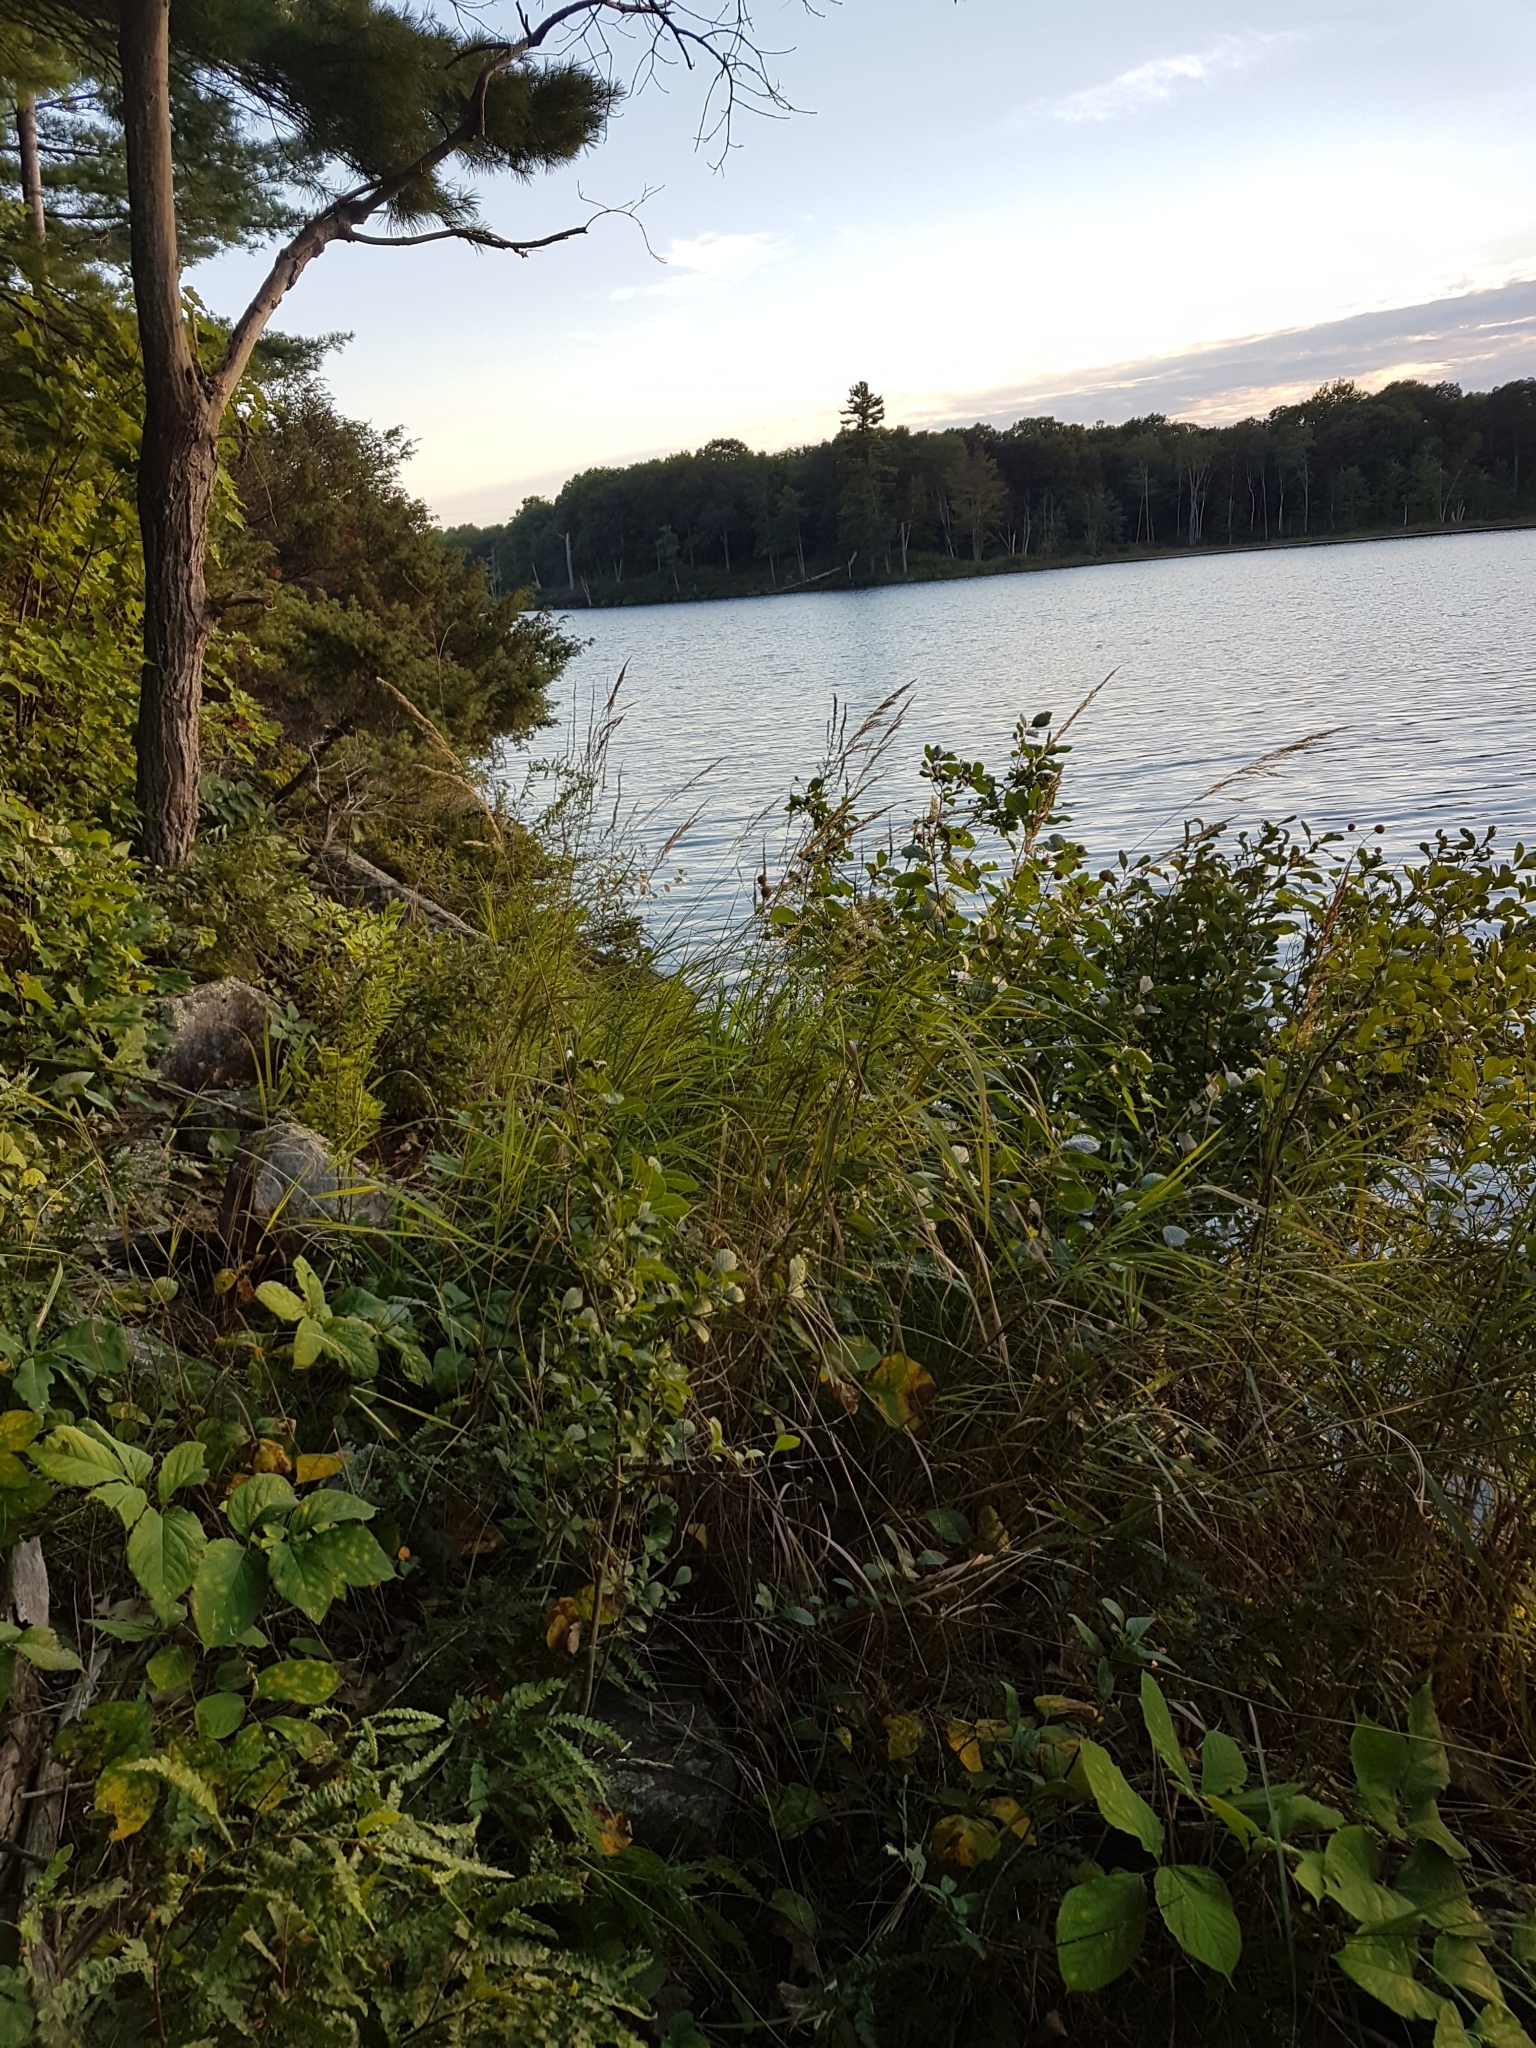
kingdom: Plantae
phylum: Tracheophyta
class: Liliopsida
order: Poales
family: Poaceae
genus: Calamagrostis
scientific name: Calamagrostis canadensis
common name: Canada bluejoint
